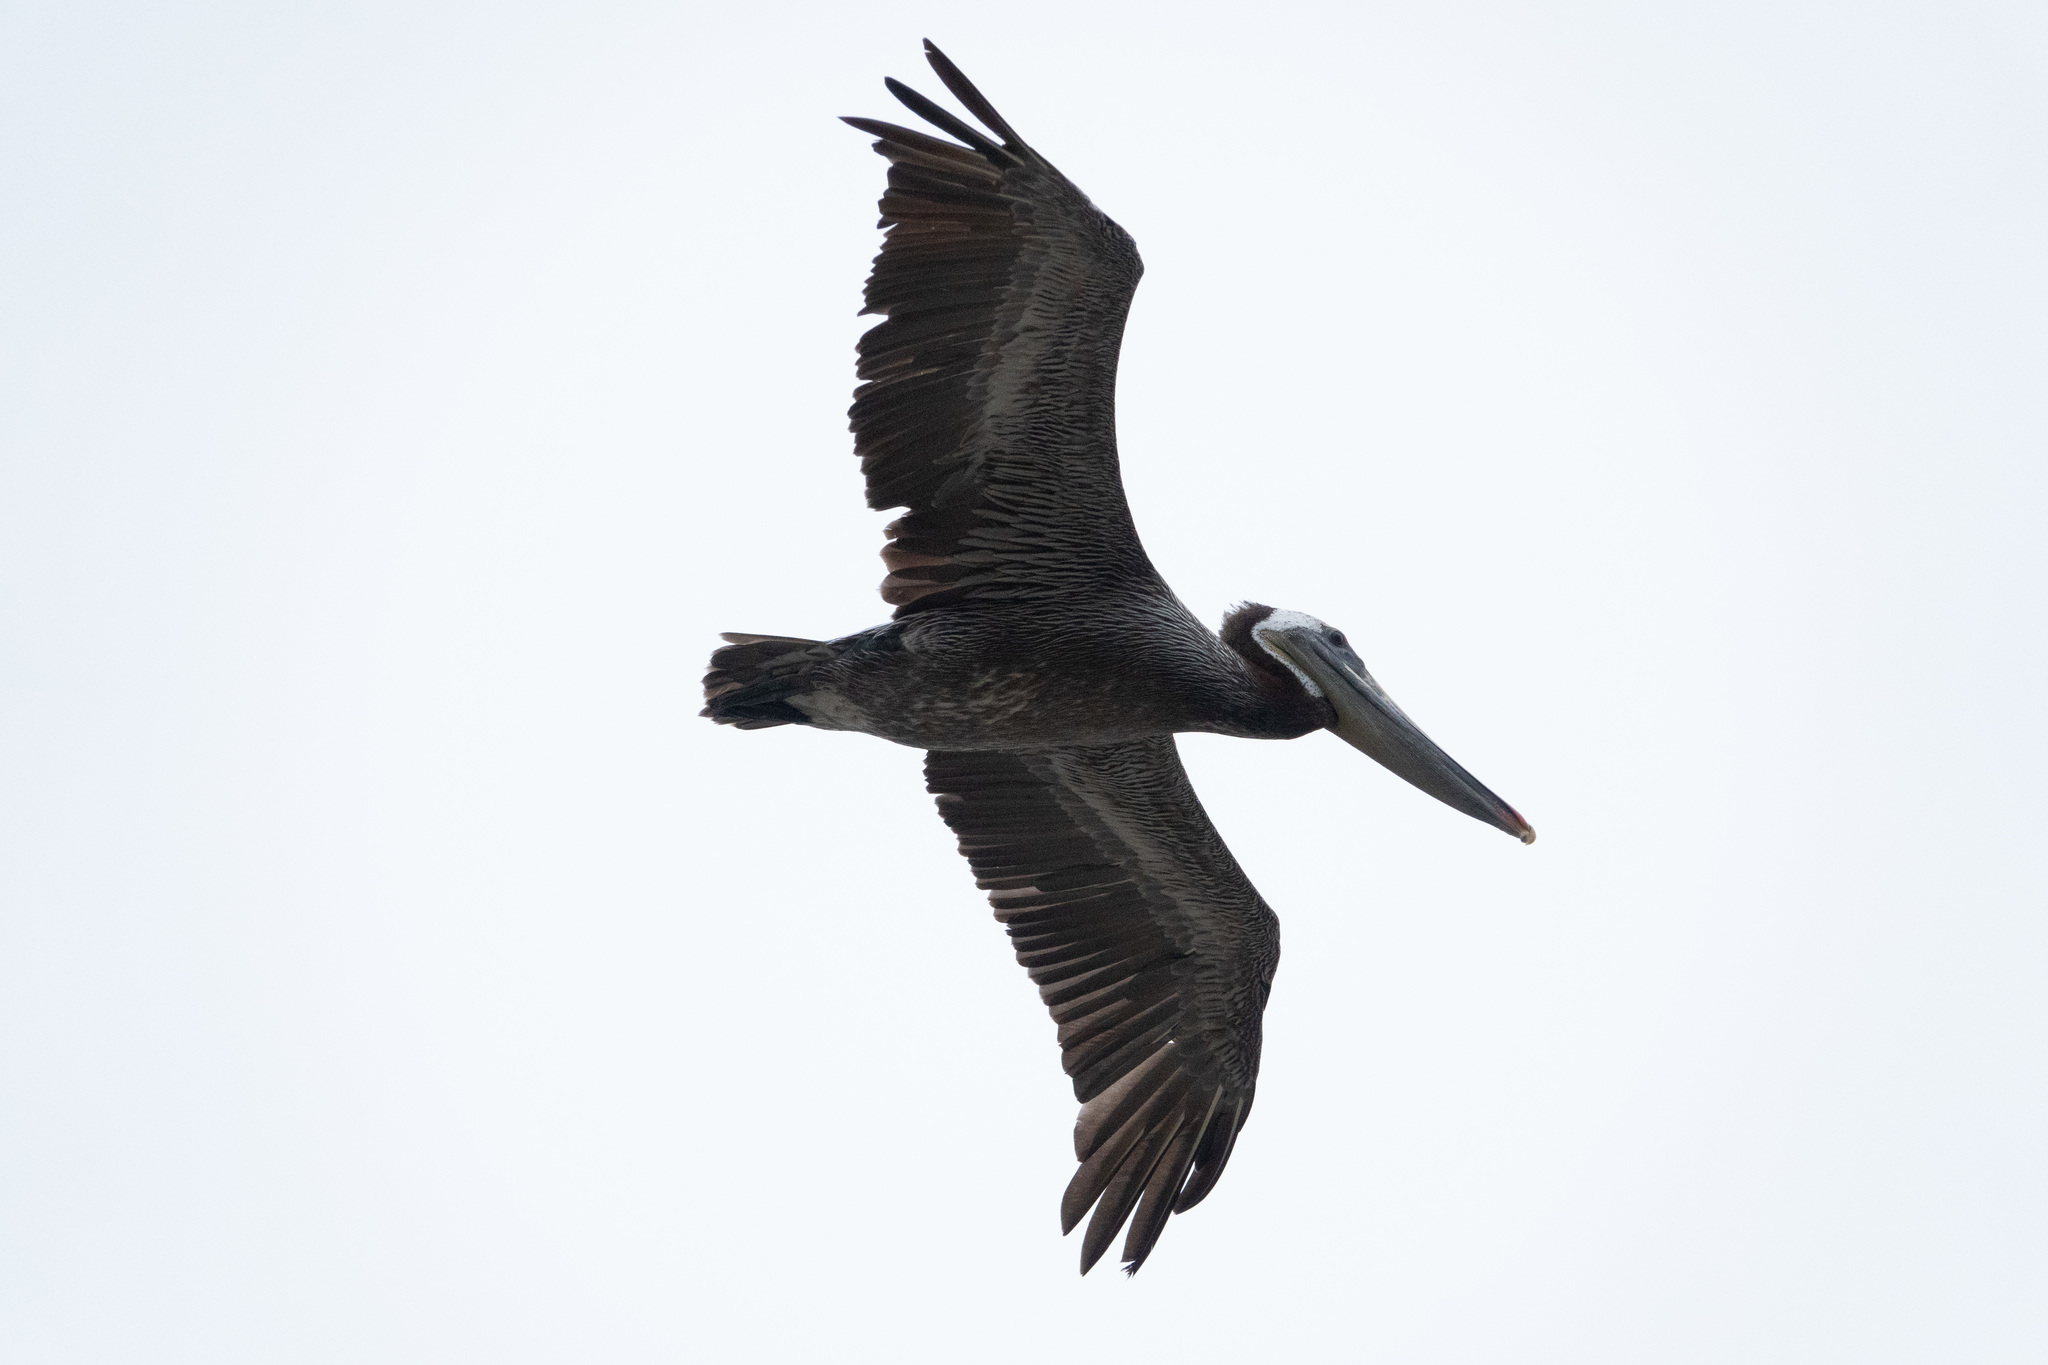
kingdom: Animalia
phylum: Chordata
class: Aves
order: Pelecaniformes
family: Pelecanidae
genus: Pelecanus
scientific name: Pelecanus occidentalis
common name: Brown pelican
